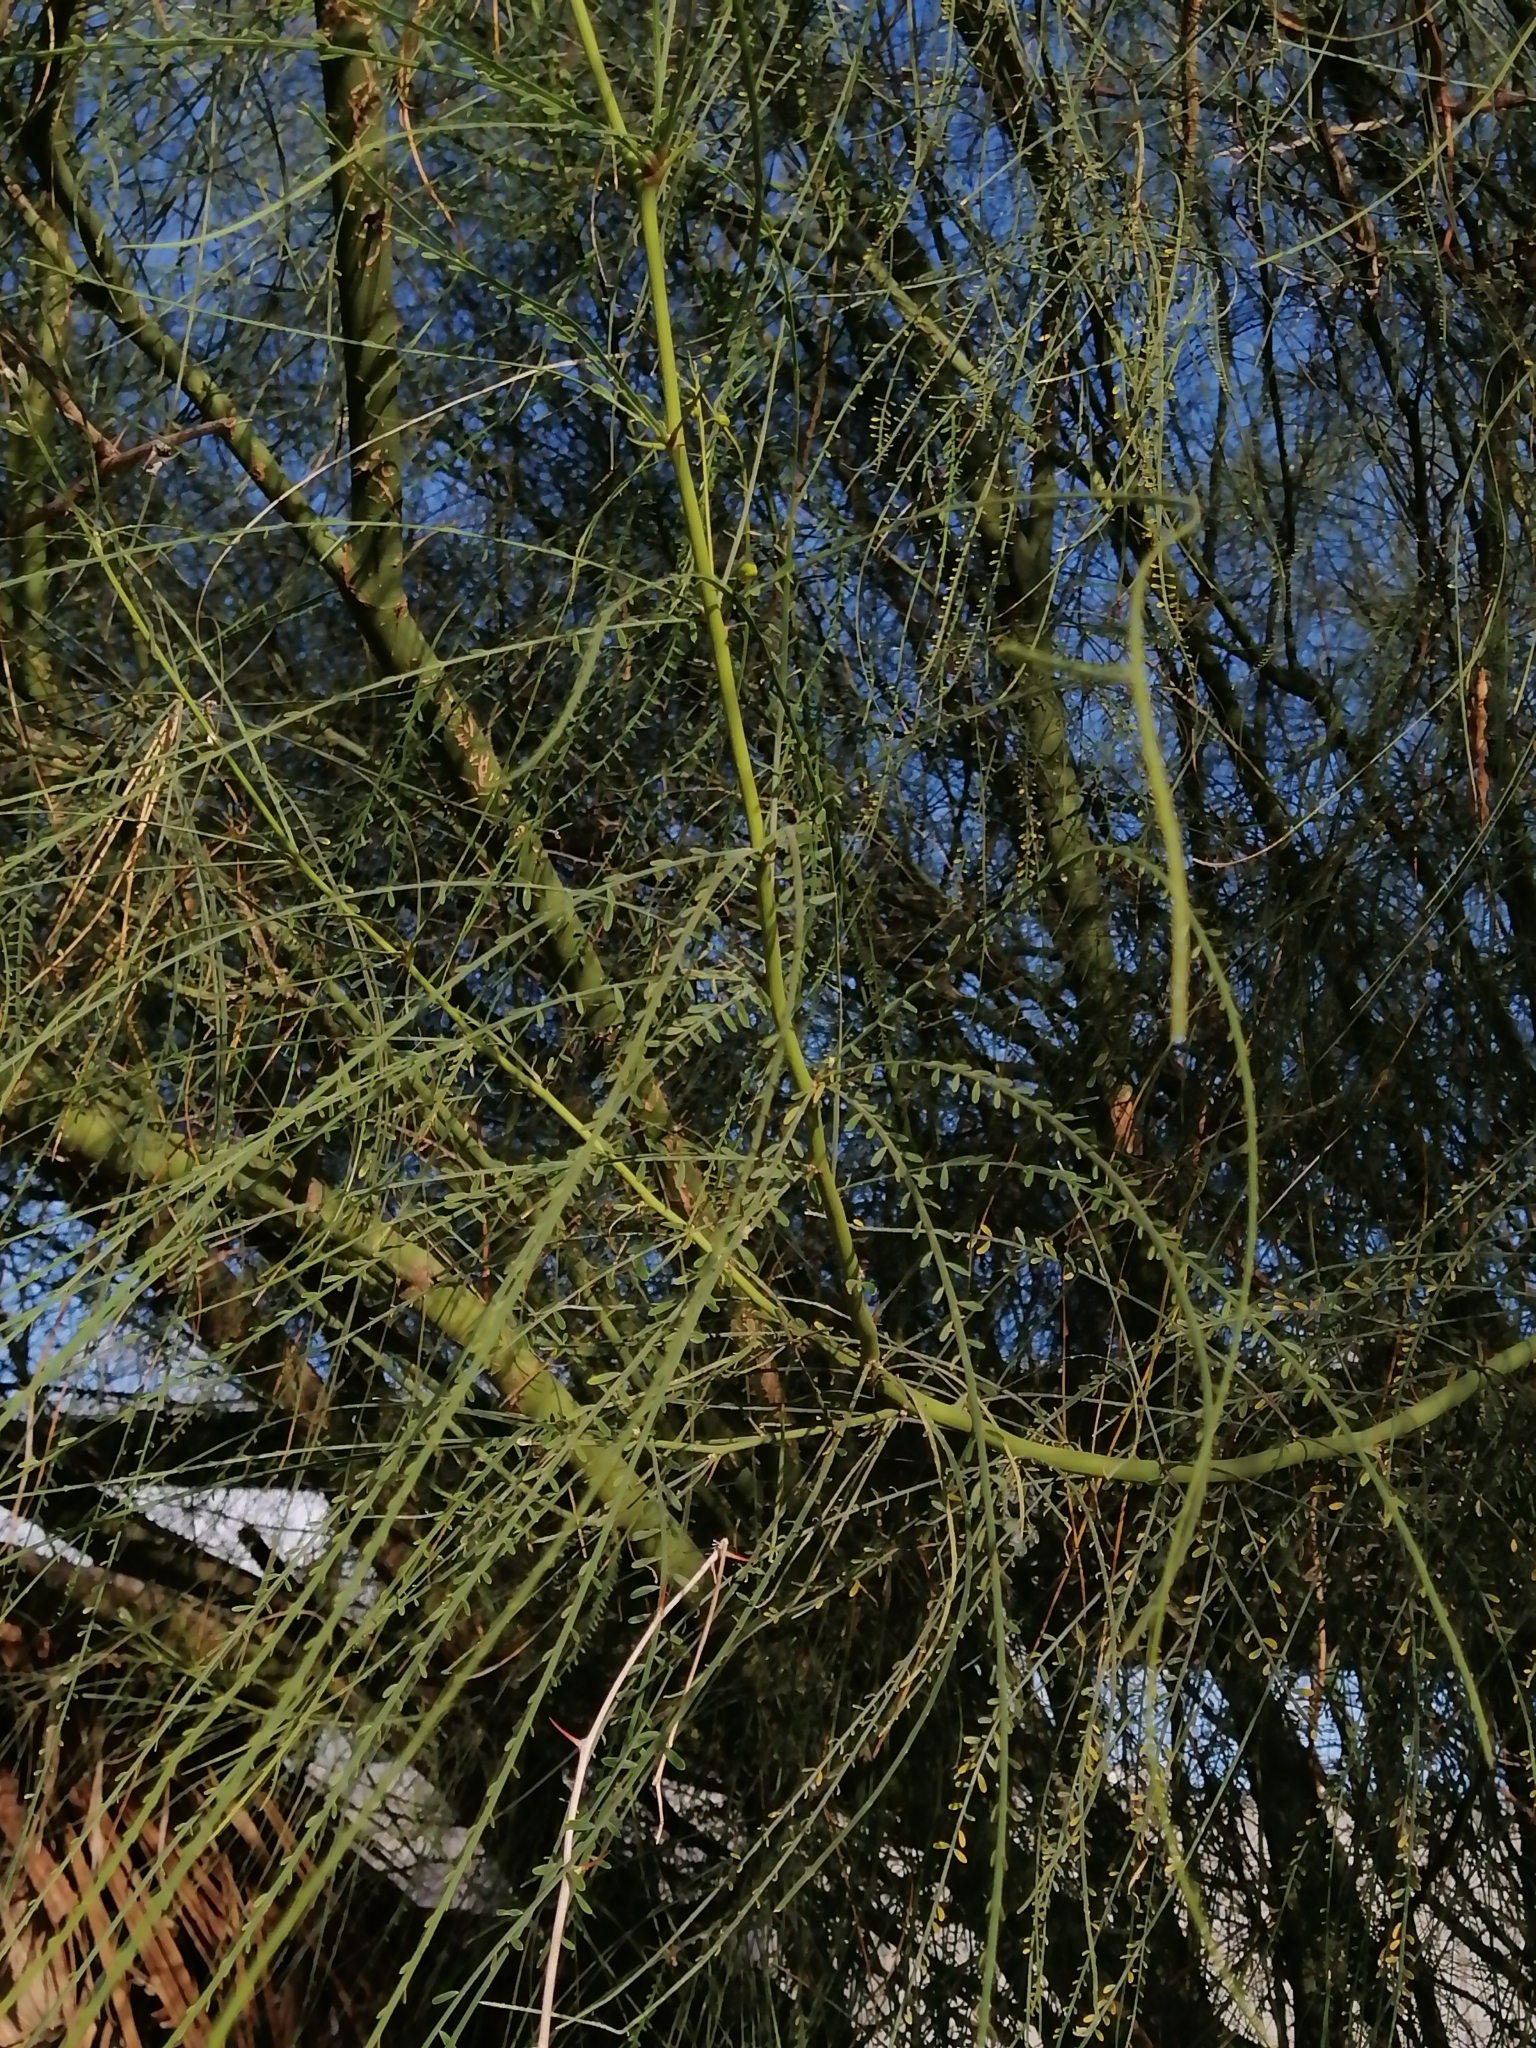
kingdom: Plantae
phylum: Tracheophyta
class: Magnoliopsida
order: Fabales
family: Fabaceae
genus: Parkinsonia
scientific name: Parkinsonia aculeata
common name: Jerusalem thorn
